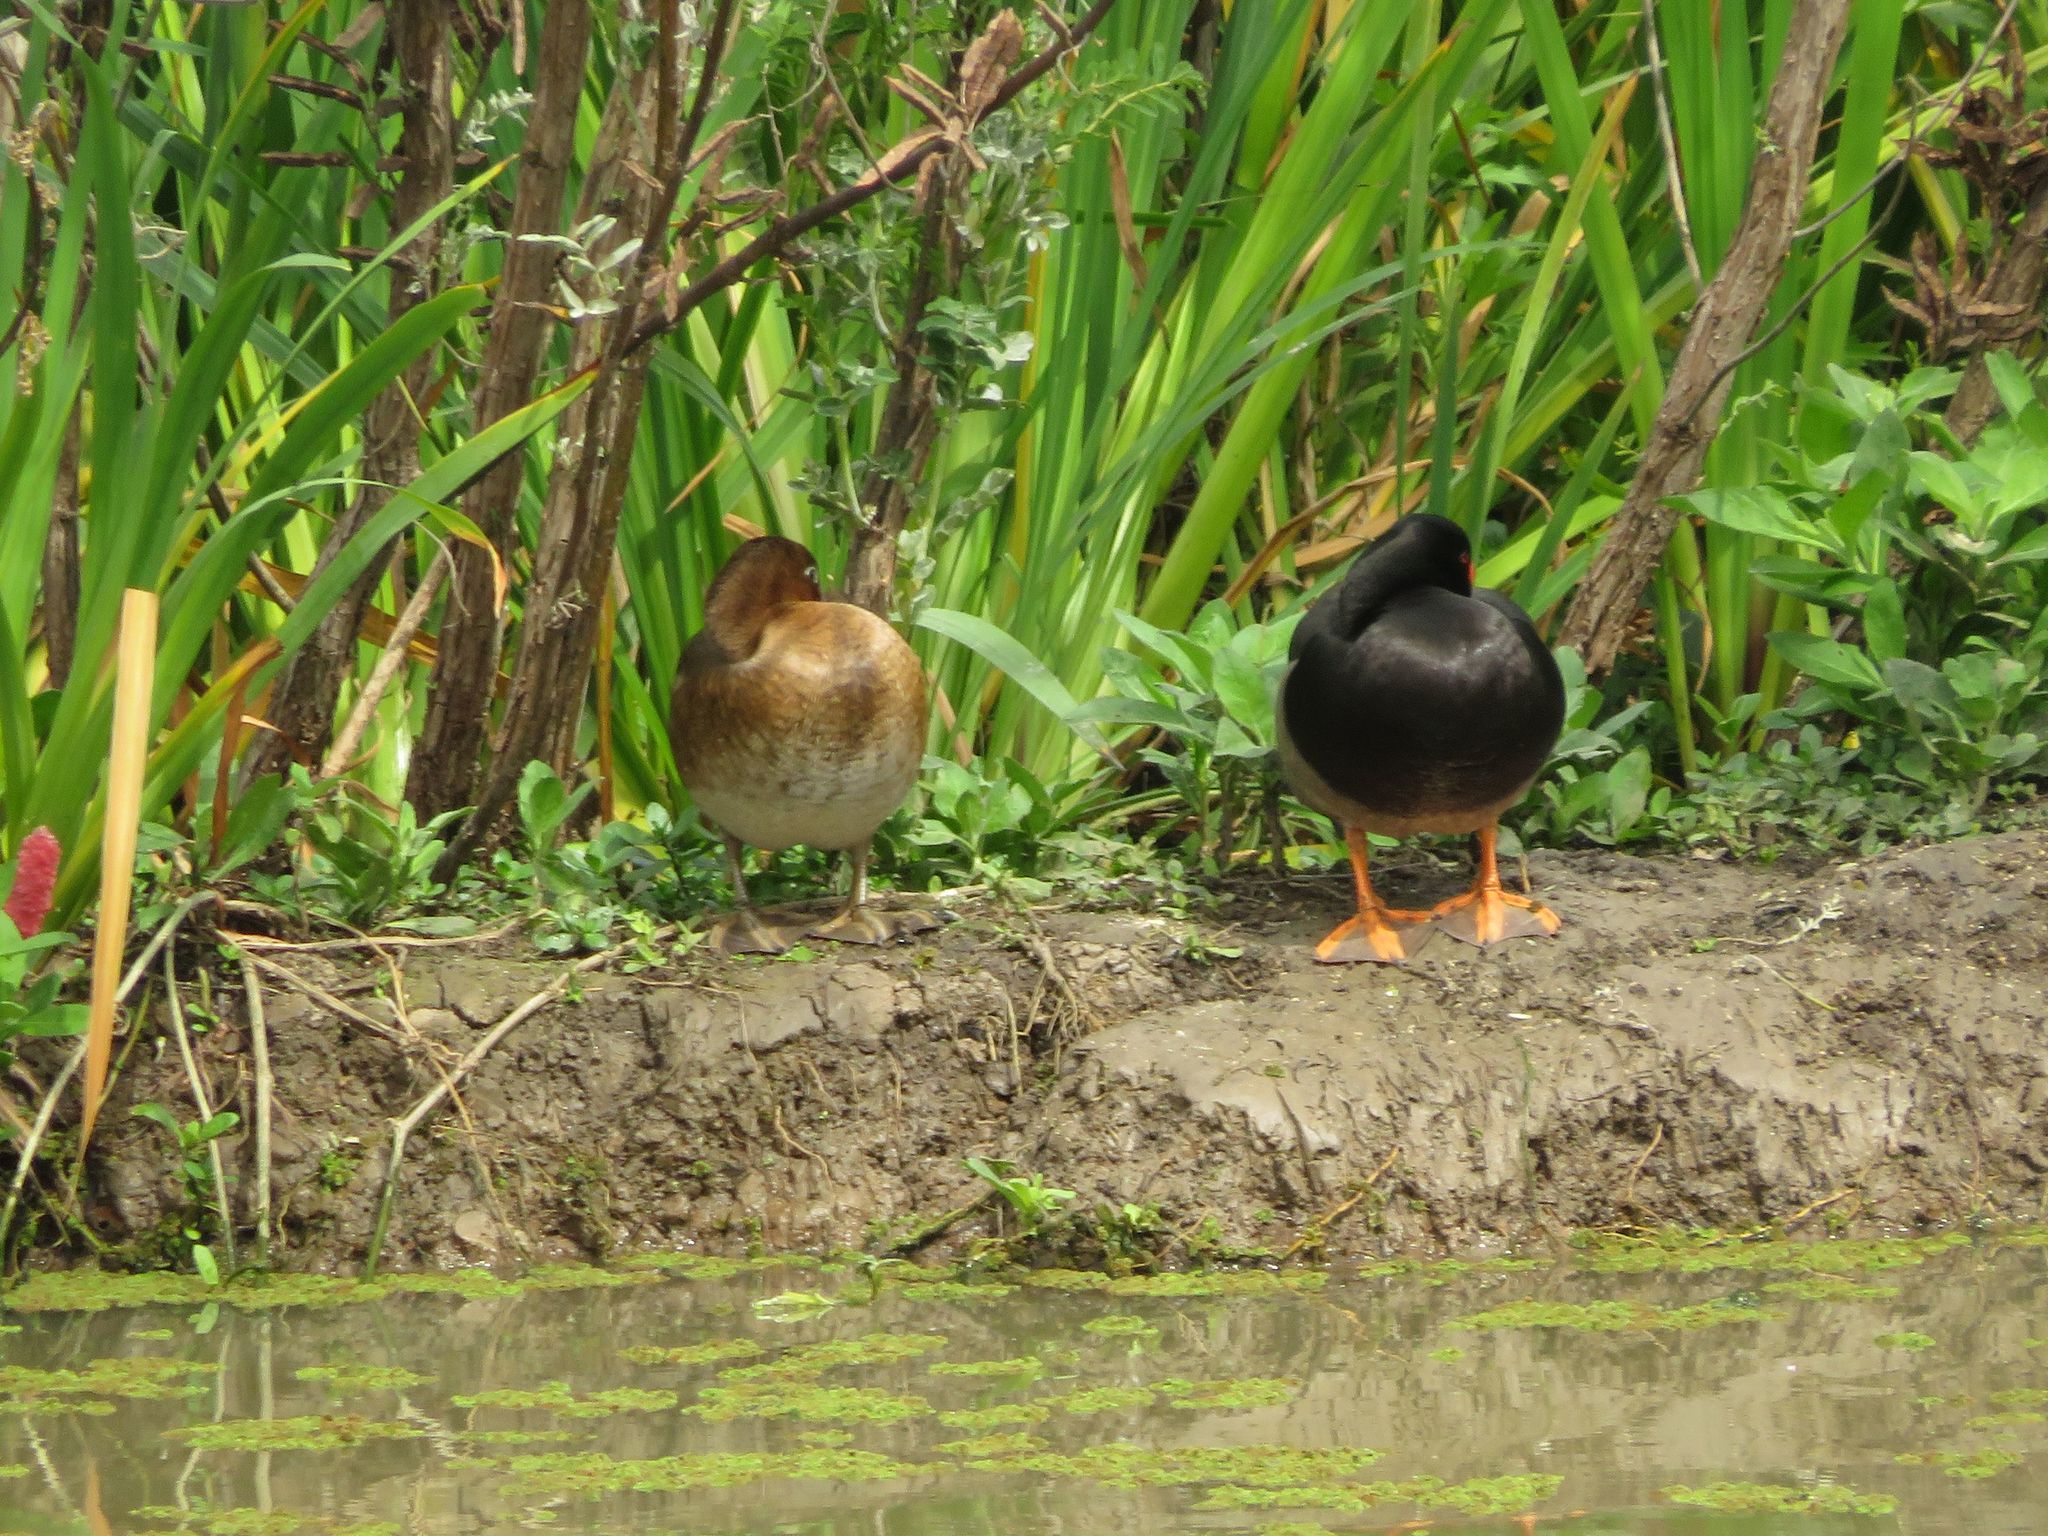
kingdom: Animalia
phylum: Chordata
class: Aves
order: Anseriformes
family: Anatidae
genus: Netta
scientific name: Netta peposaca
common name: Rosy-billed pochard
